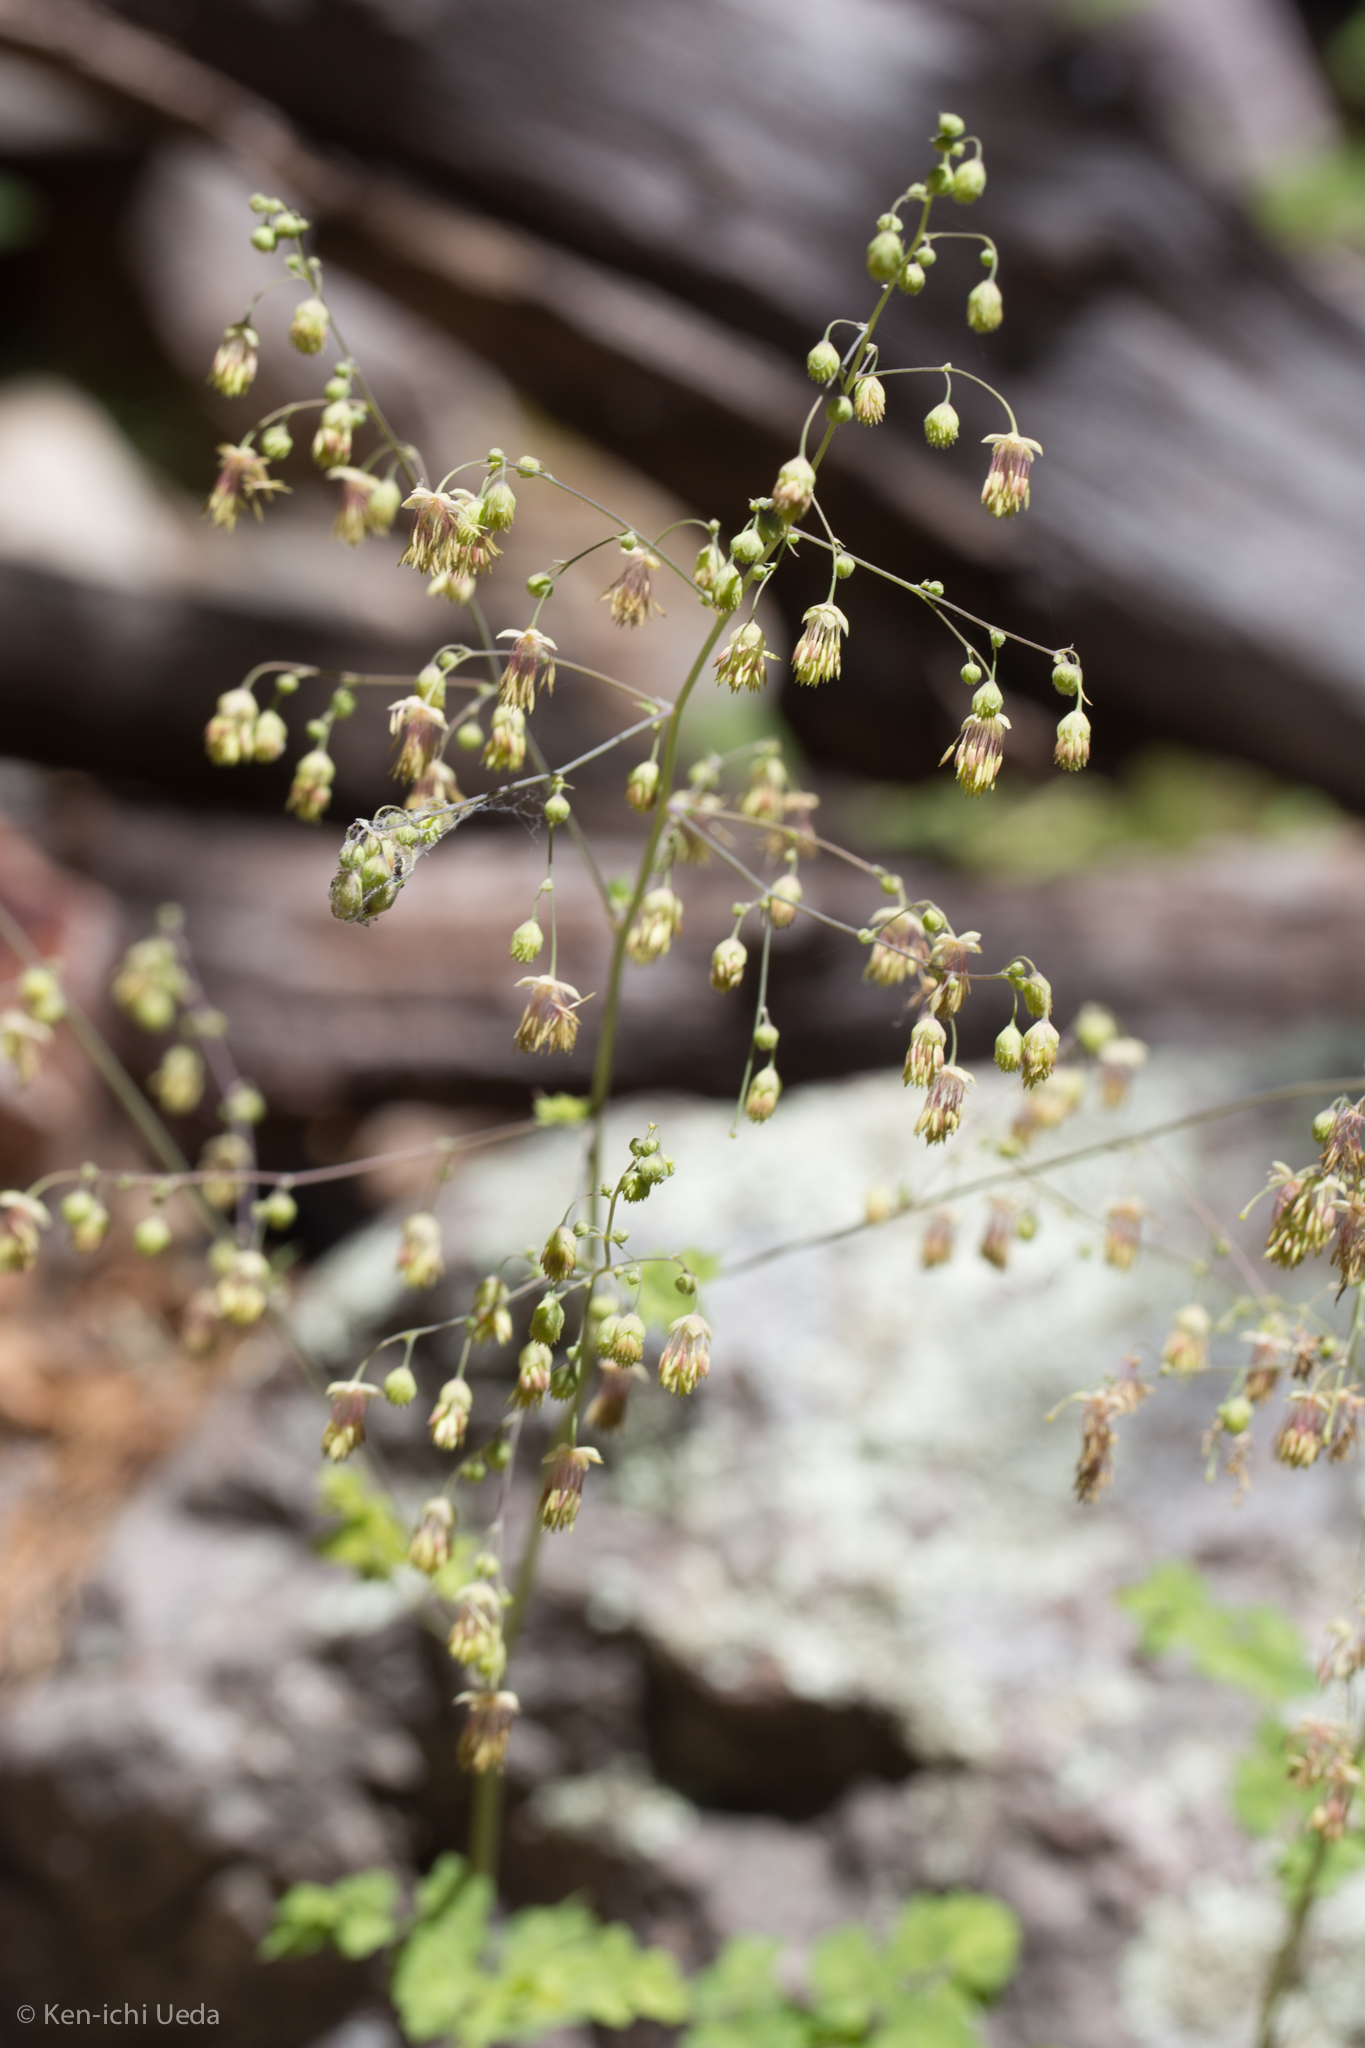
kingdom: Plantae
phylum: Tracheophyta
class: Magnoliopsida
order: Ranunculales
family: Ranunculaceae
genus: Thalictrum
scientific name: Thalictrum fendleri
